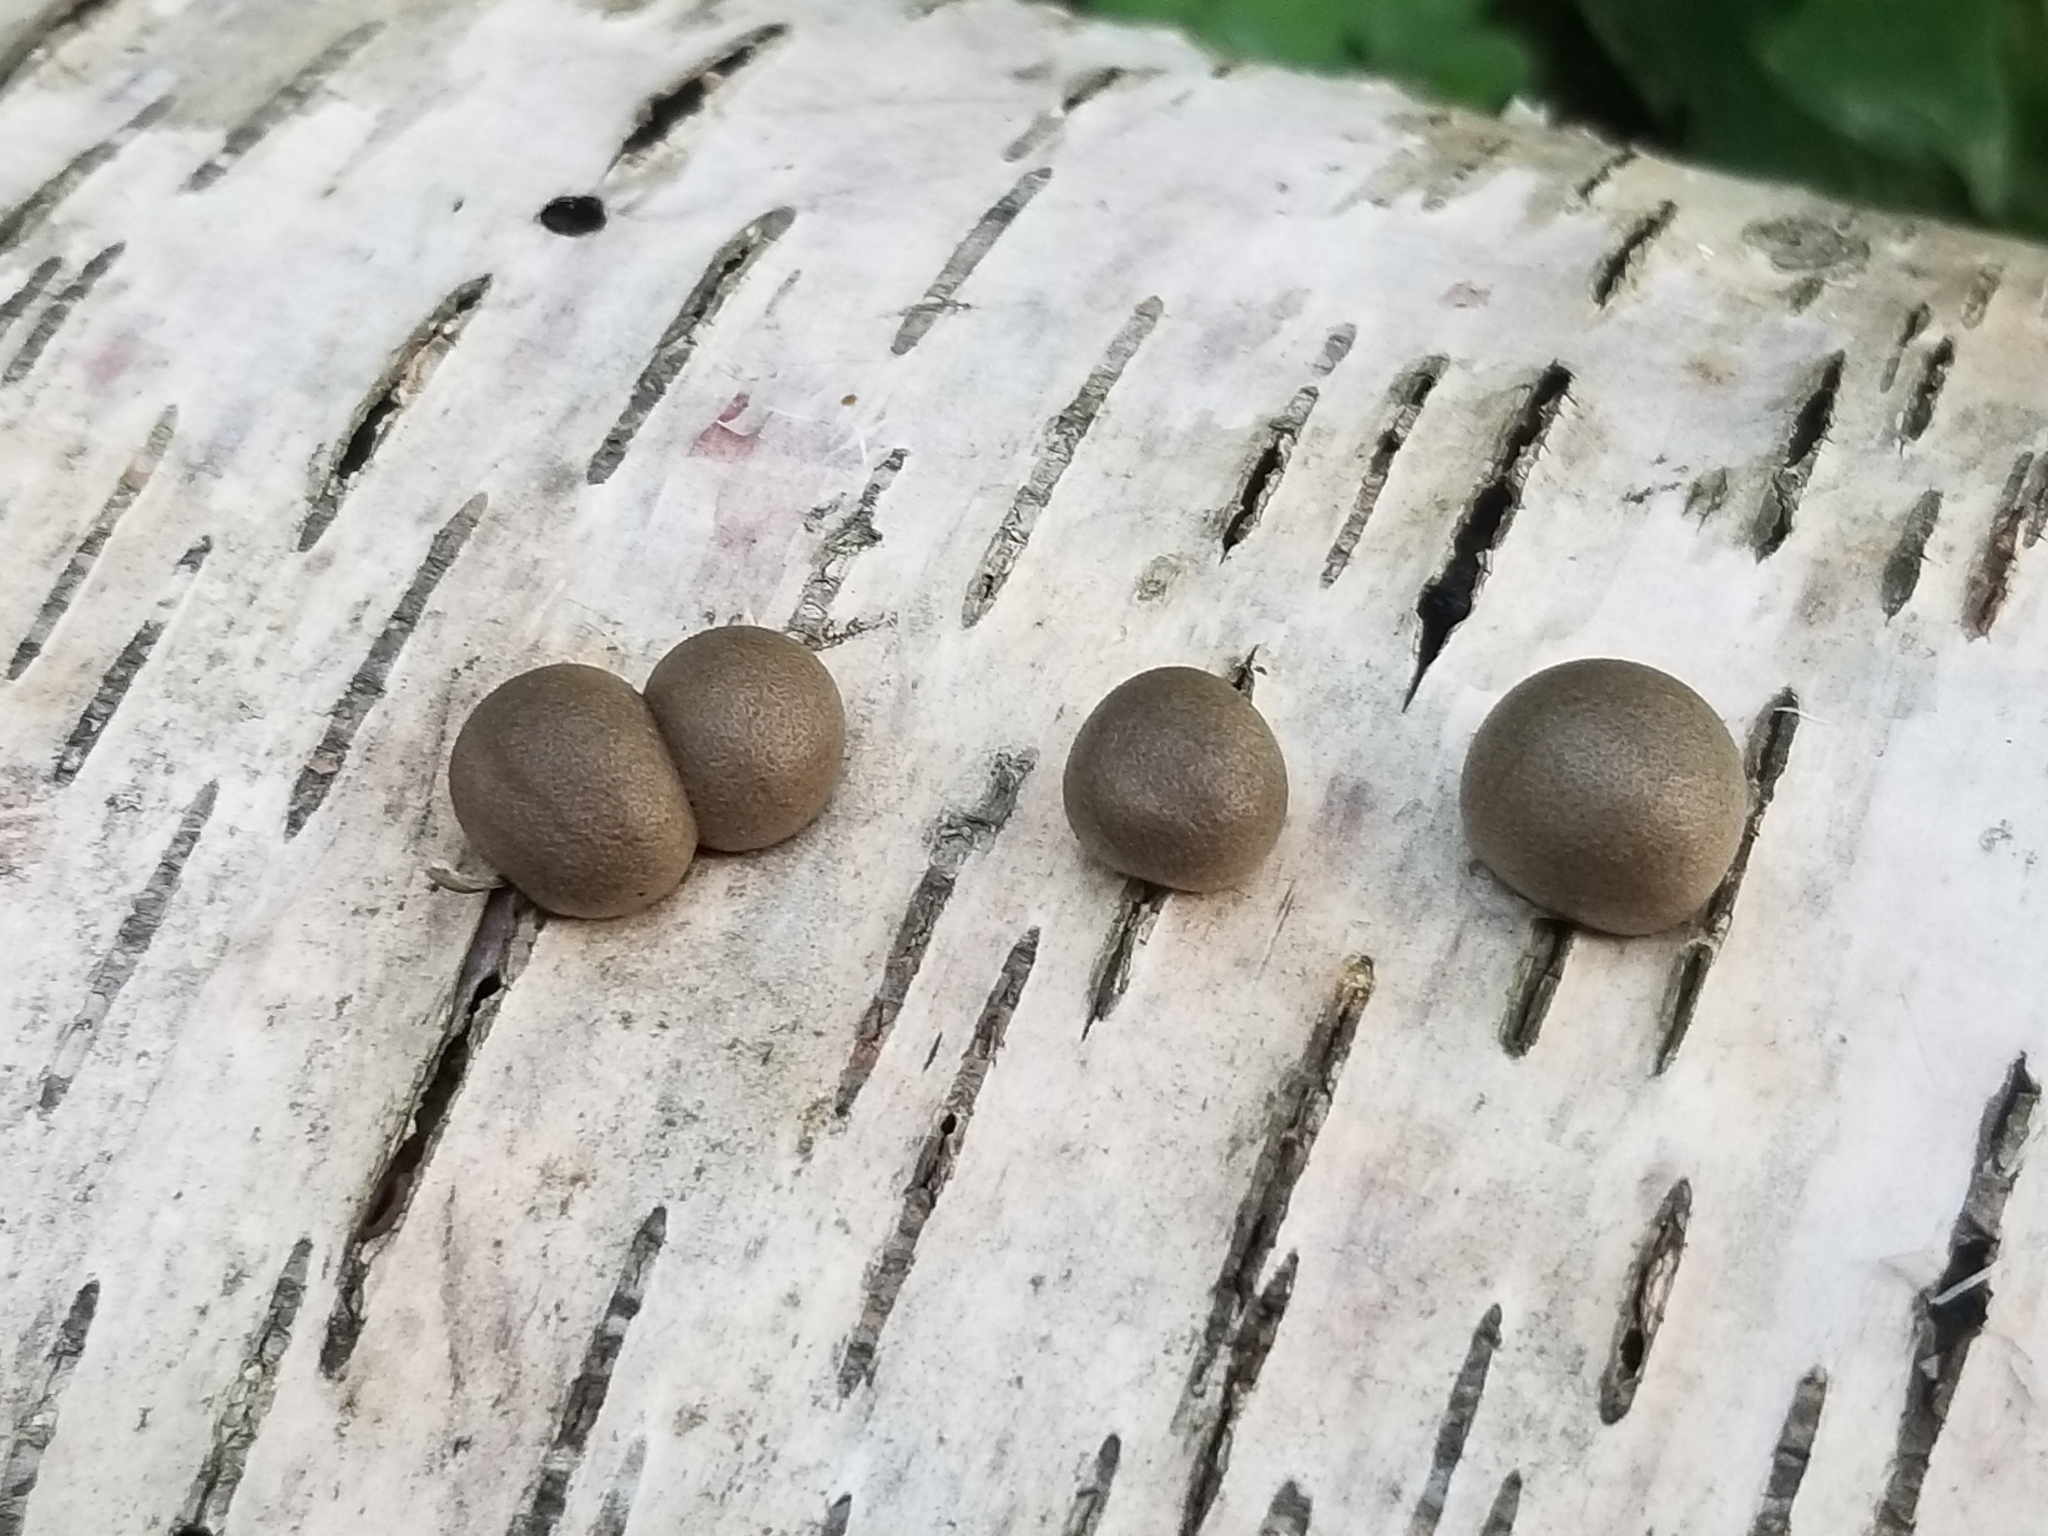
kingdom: Protozoa
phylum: Mycetozoa
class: Myxomycetes
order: Cribrariales
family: Tubiferaceae
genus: Lycogala
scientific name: Lycogala epidendrum
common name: Wolf's milk
